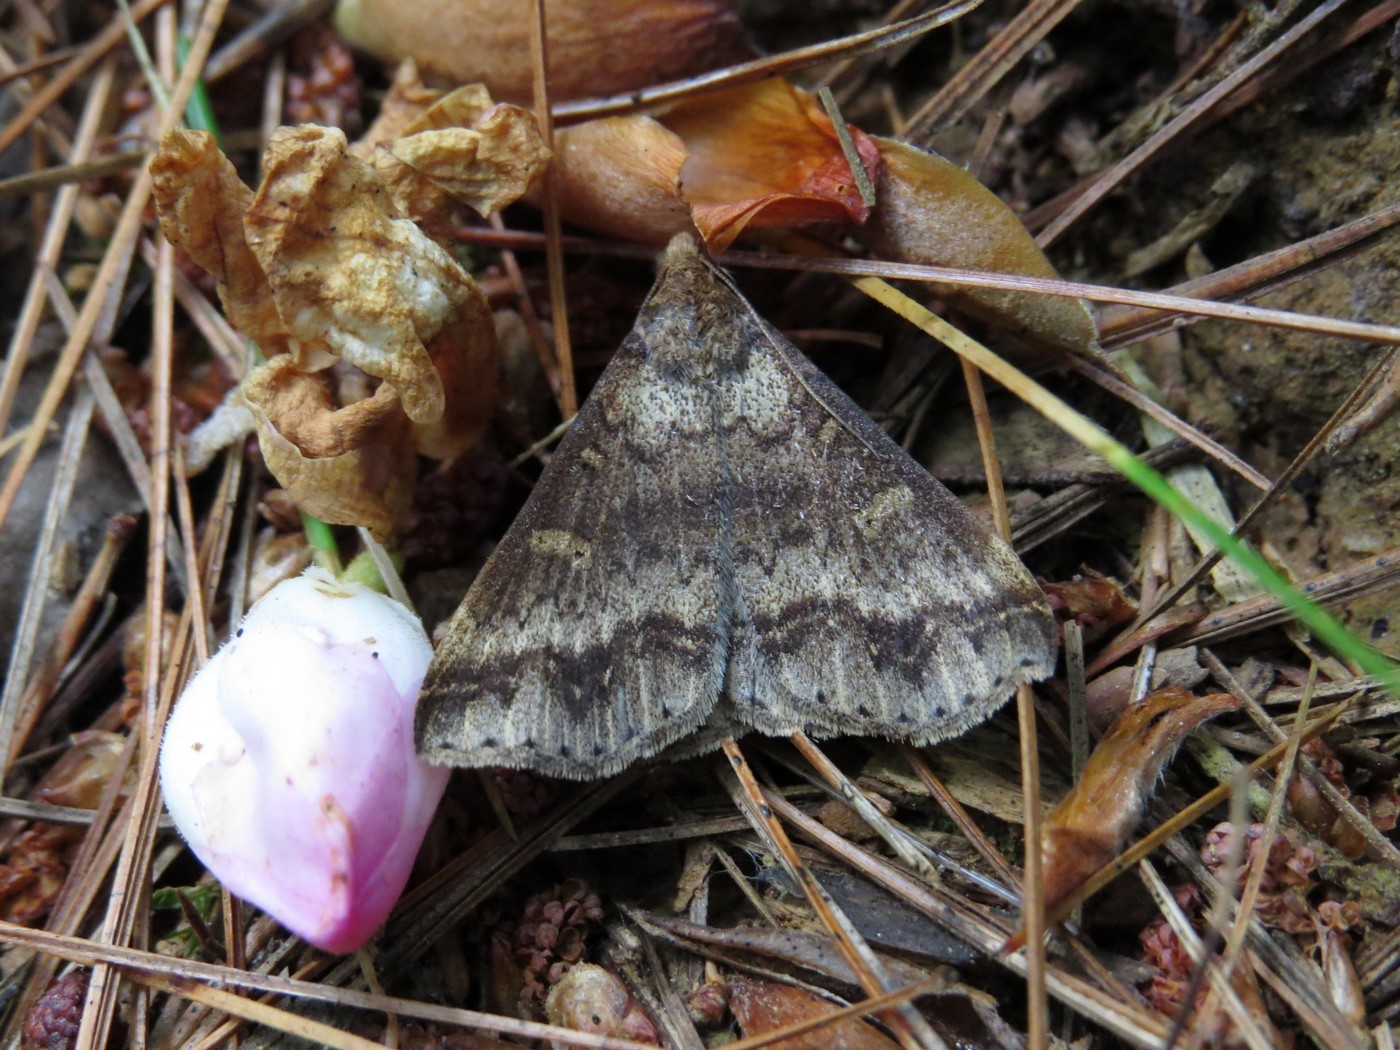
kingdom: Animalia
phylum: Arthropoda
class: Insecta
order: Lepidoptera
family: Erebidae
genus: Renia
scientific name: Renia discoloralis
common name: Discolored renia moth
